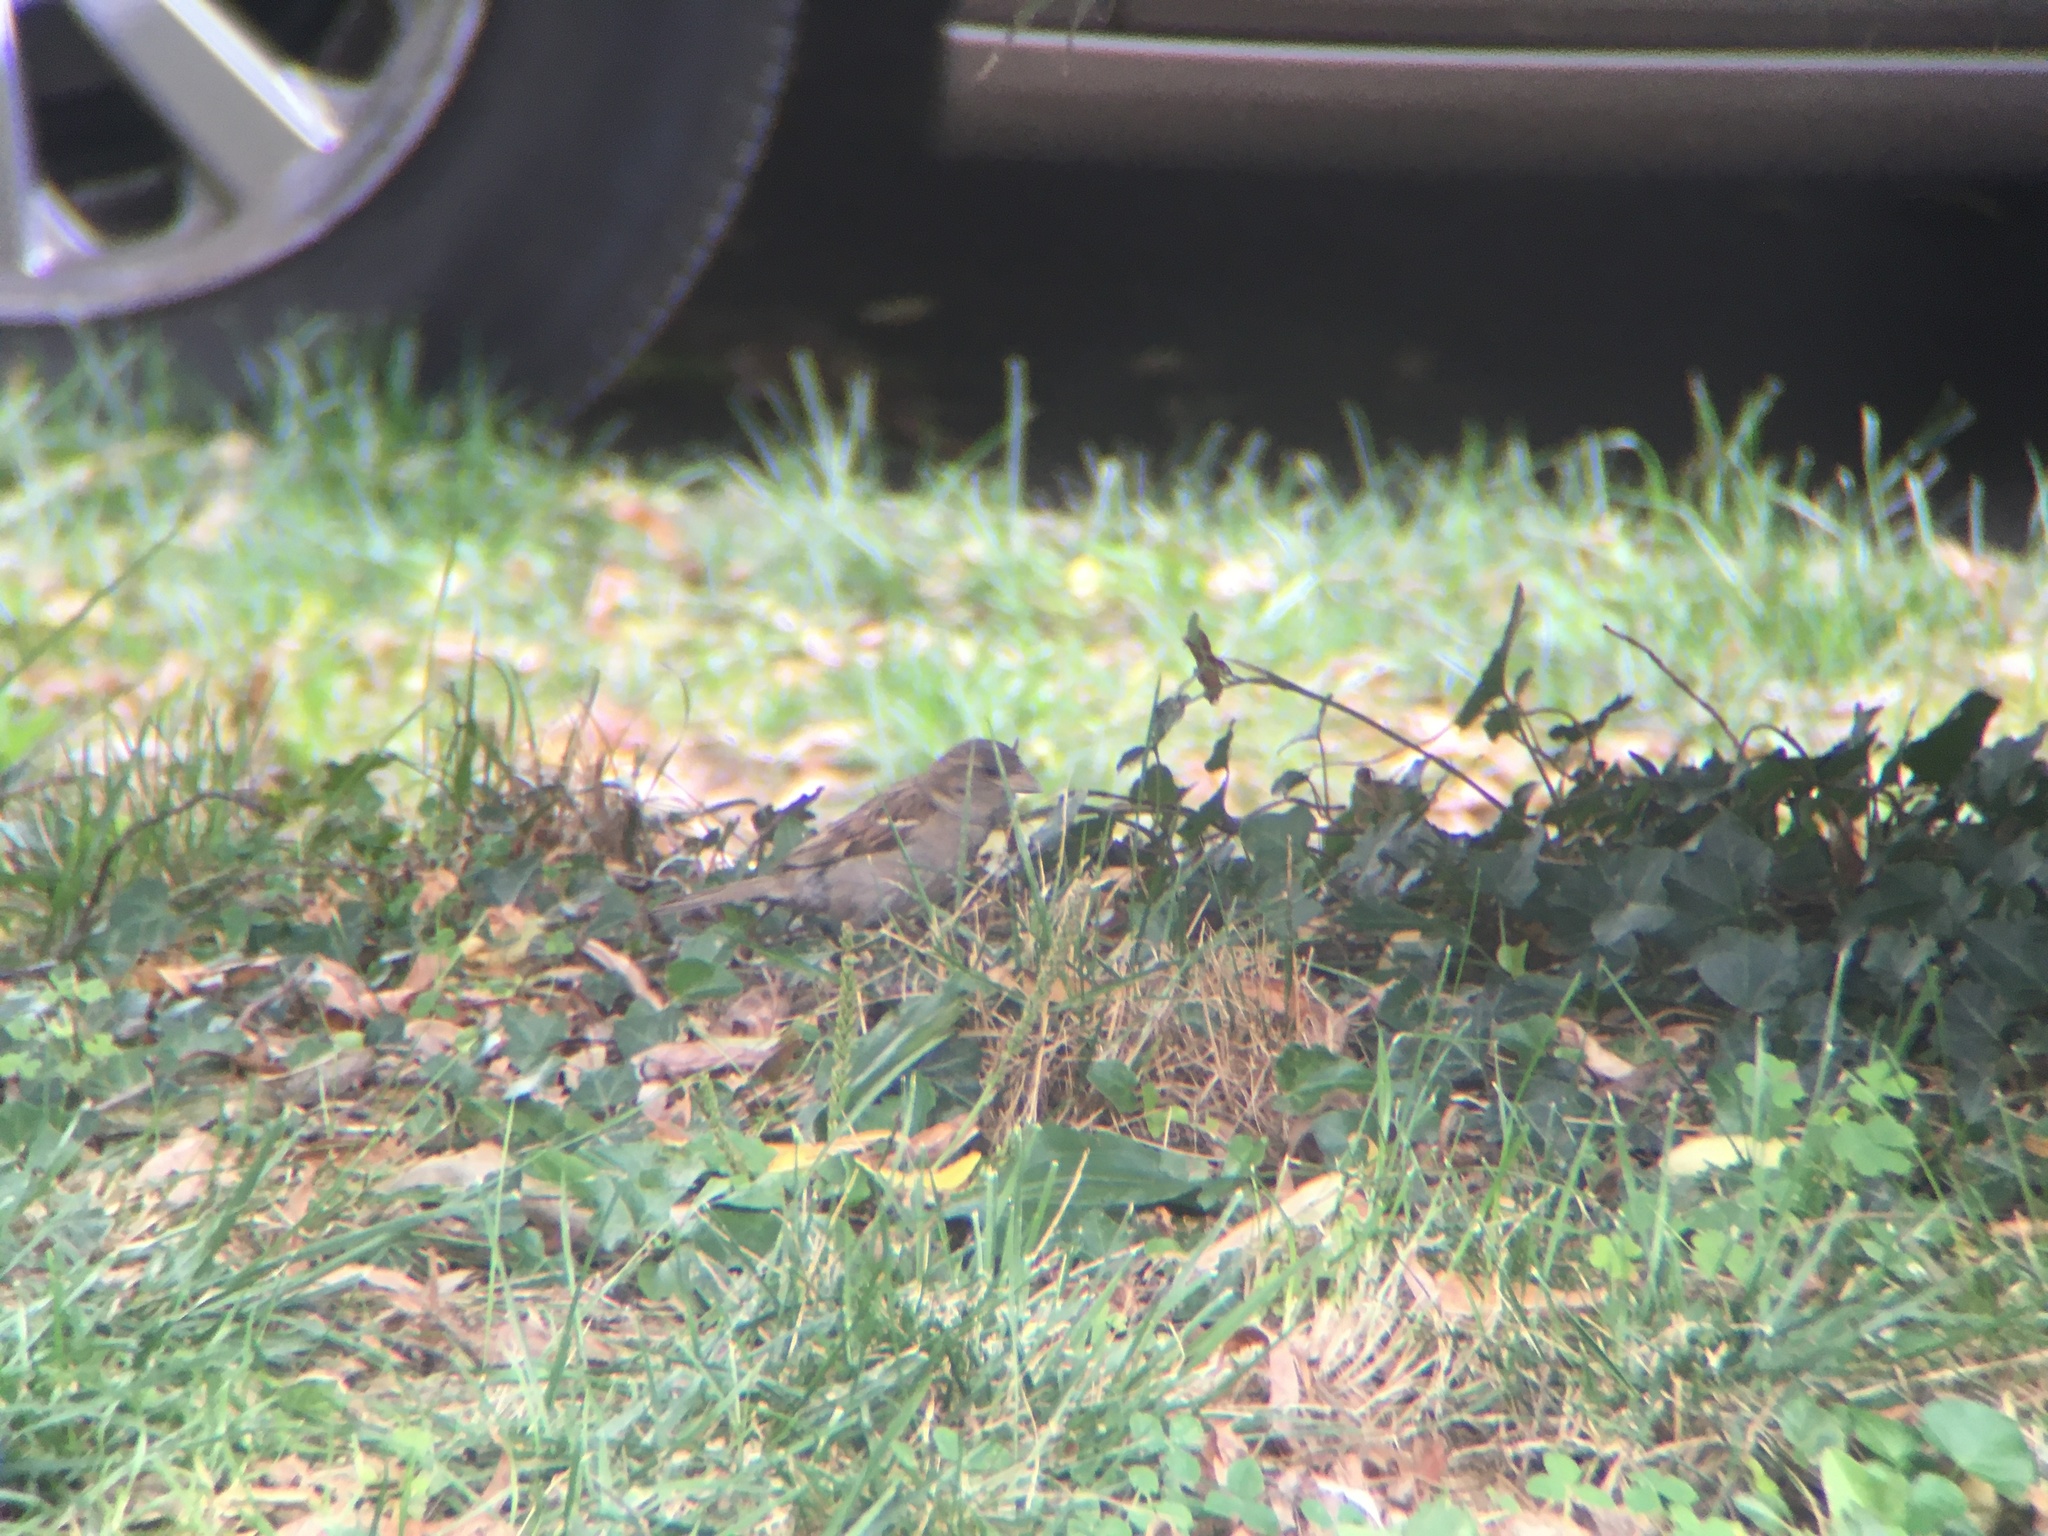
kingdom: Animalia
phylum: Chordata
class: Aves
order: Passeriformes
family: Passeridae
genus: Passer
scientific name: Passer domesticus
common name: House sparrow
